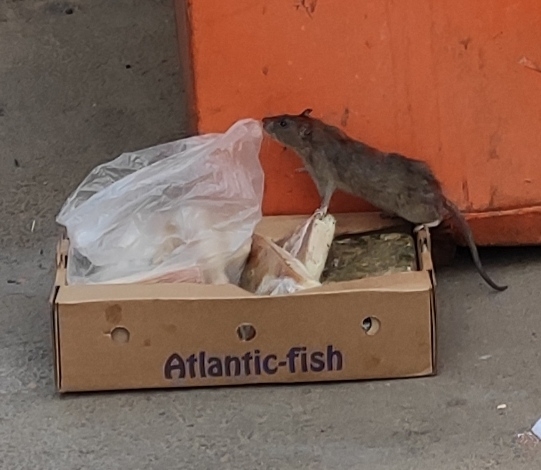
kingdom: Animalia
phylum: Chordata
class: Mammalia
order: Rodentia
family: Muridae
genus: Rattus
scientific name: Rattus norvegicus
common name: Brown rat
